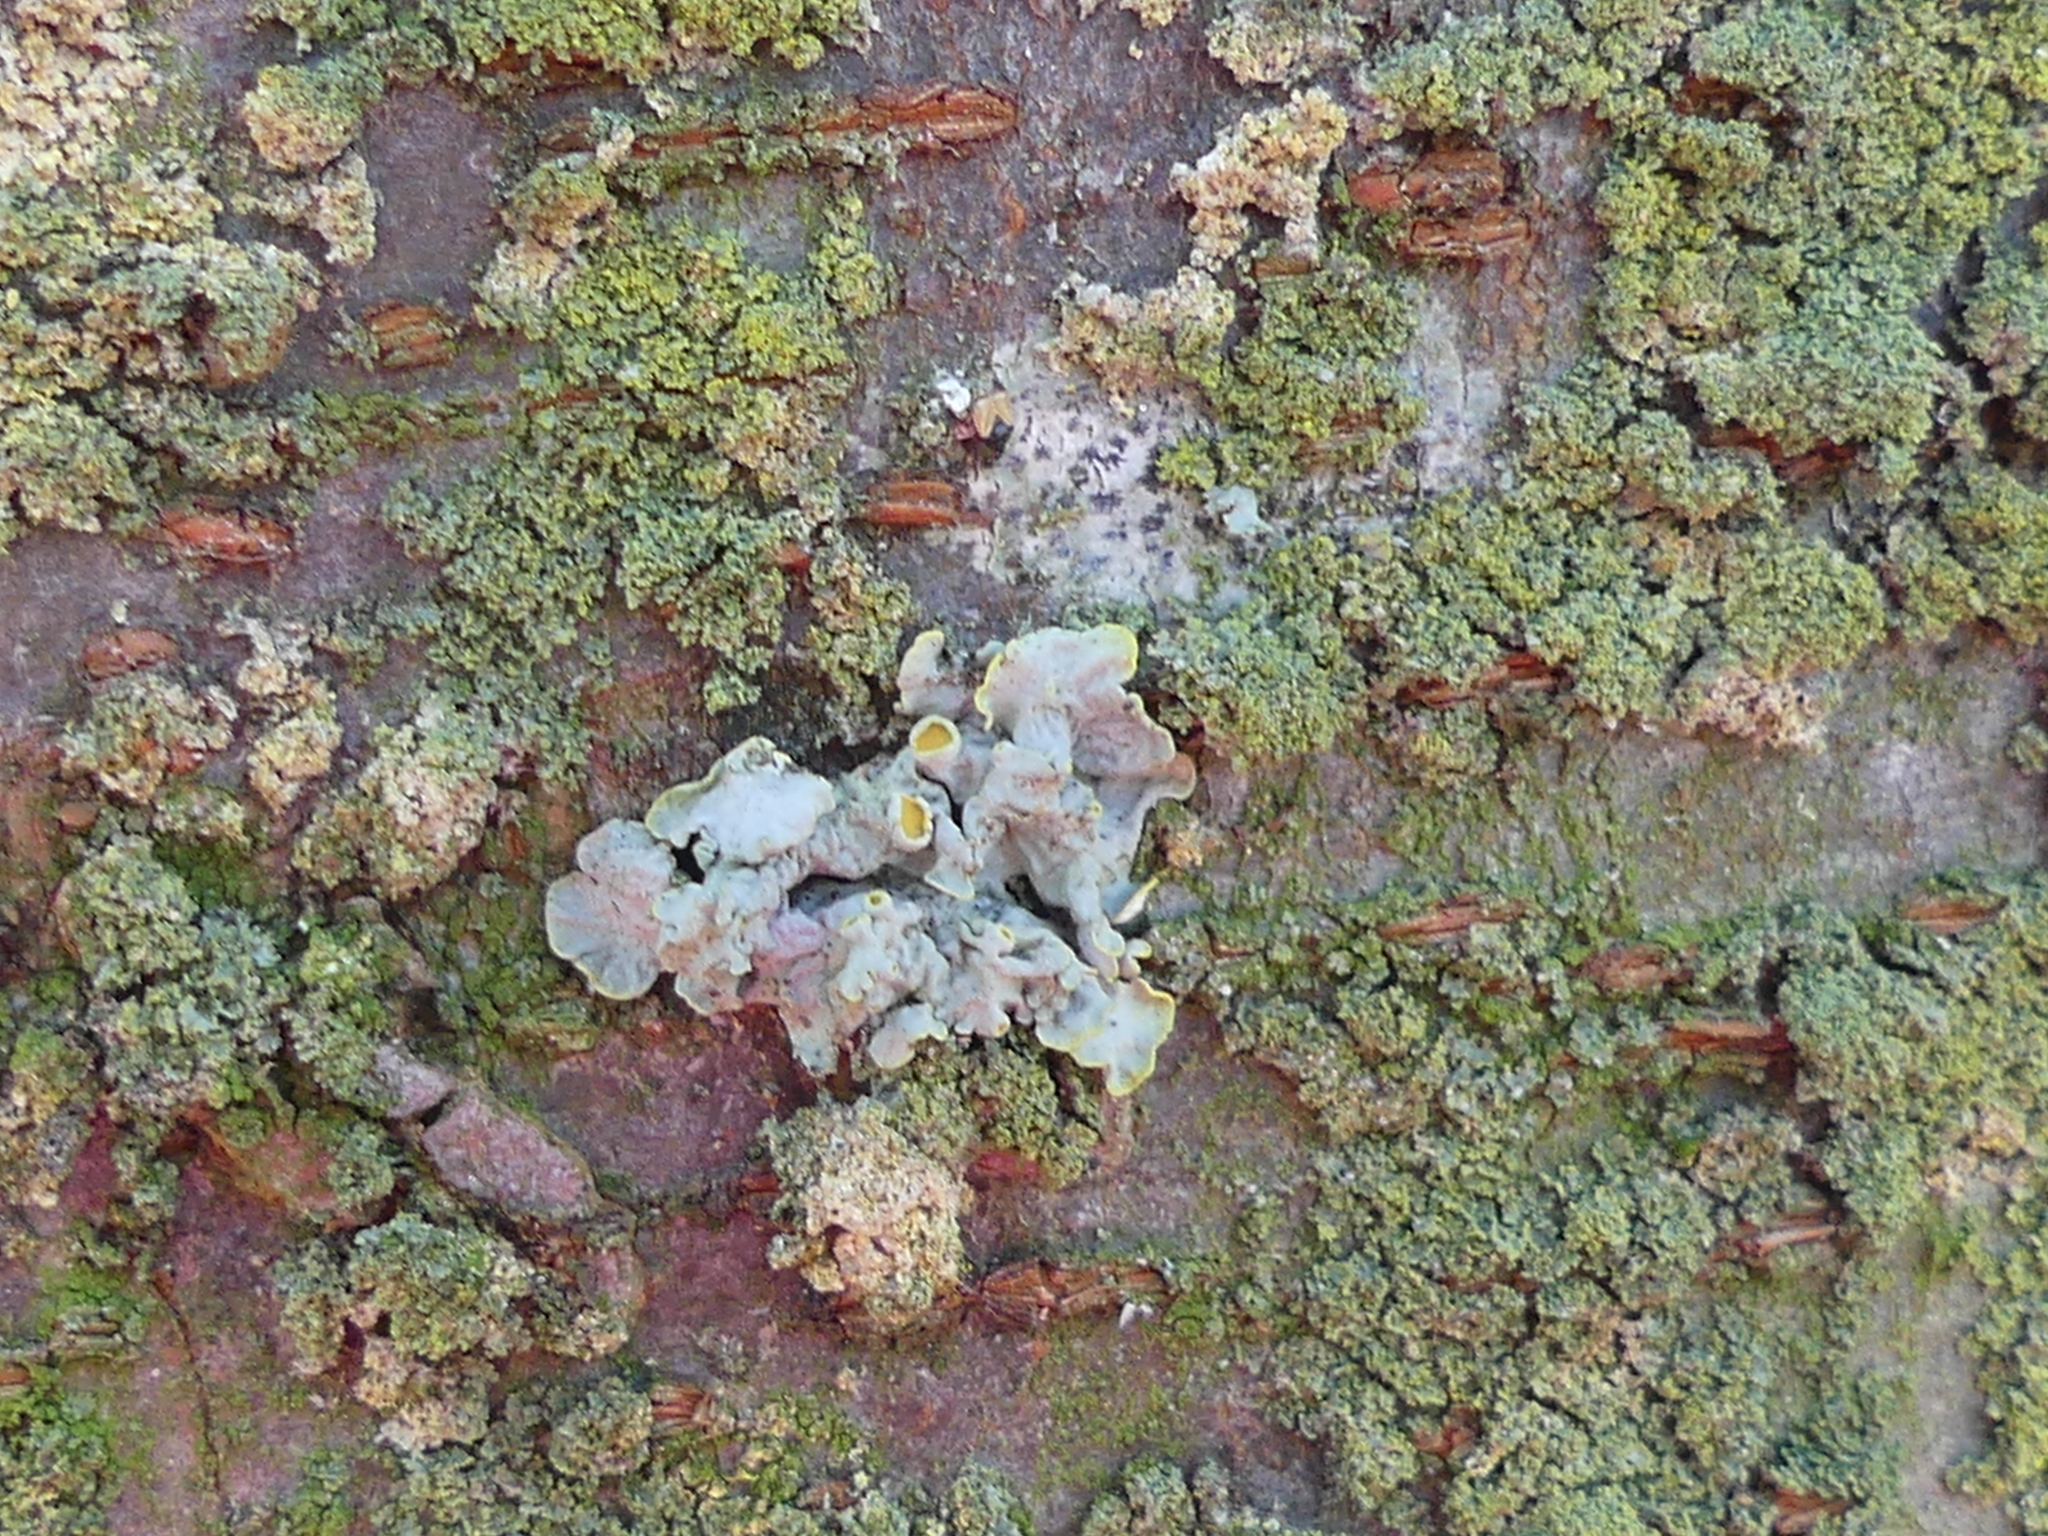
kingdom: Fungi
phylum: Ascomycota
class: Lecanoromycetes
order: Teloschistales
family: Teloschistaceae
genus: Xanthoria
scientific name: Xanthoria parietina
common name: Common orange lichen
